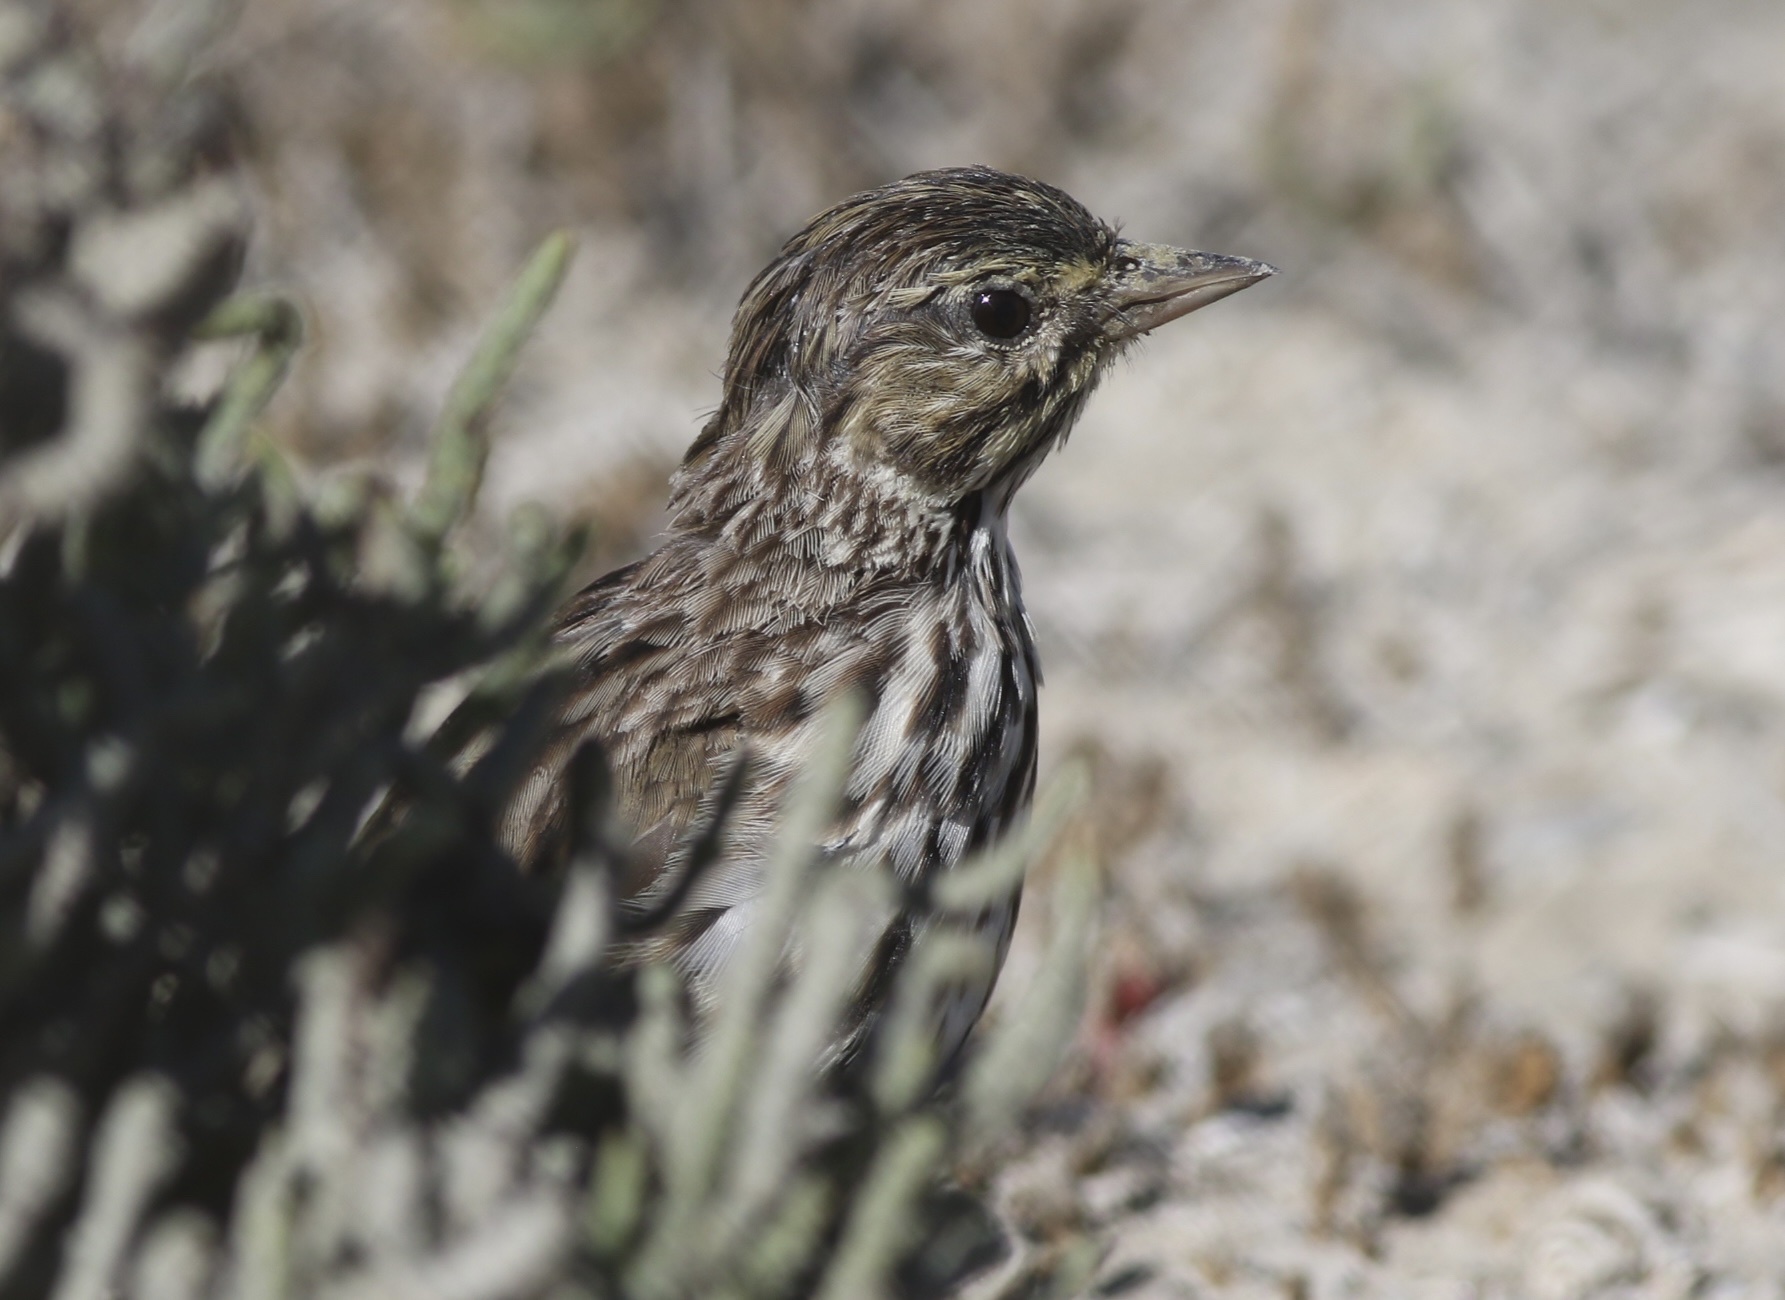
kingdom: Animalia
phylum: Chordata
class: Aves
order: Passeriformes
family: Passerellidae
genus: Passerculus
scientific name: Passerculus sandwichensis
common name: Savannah sparrow
